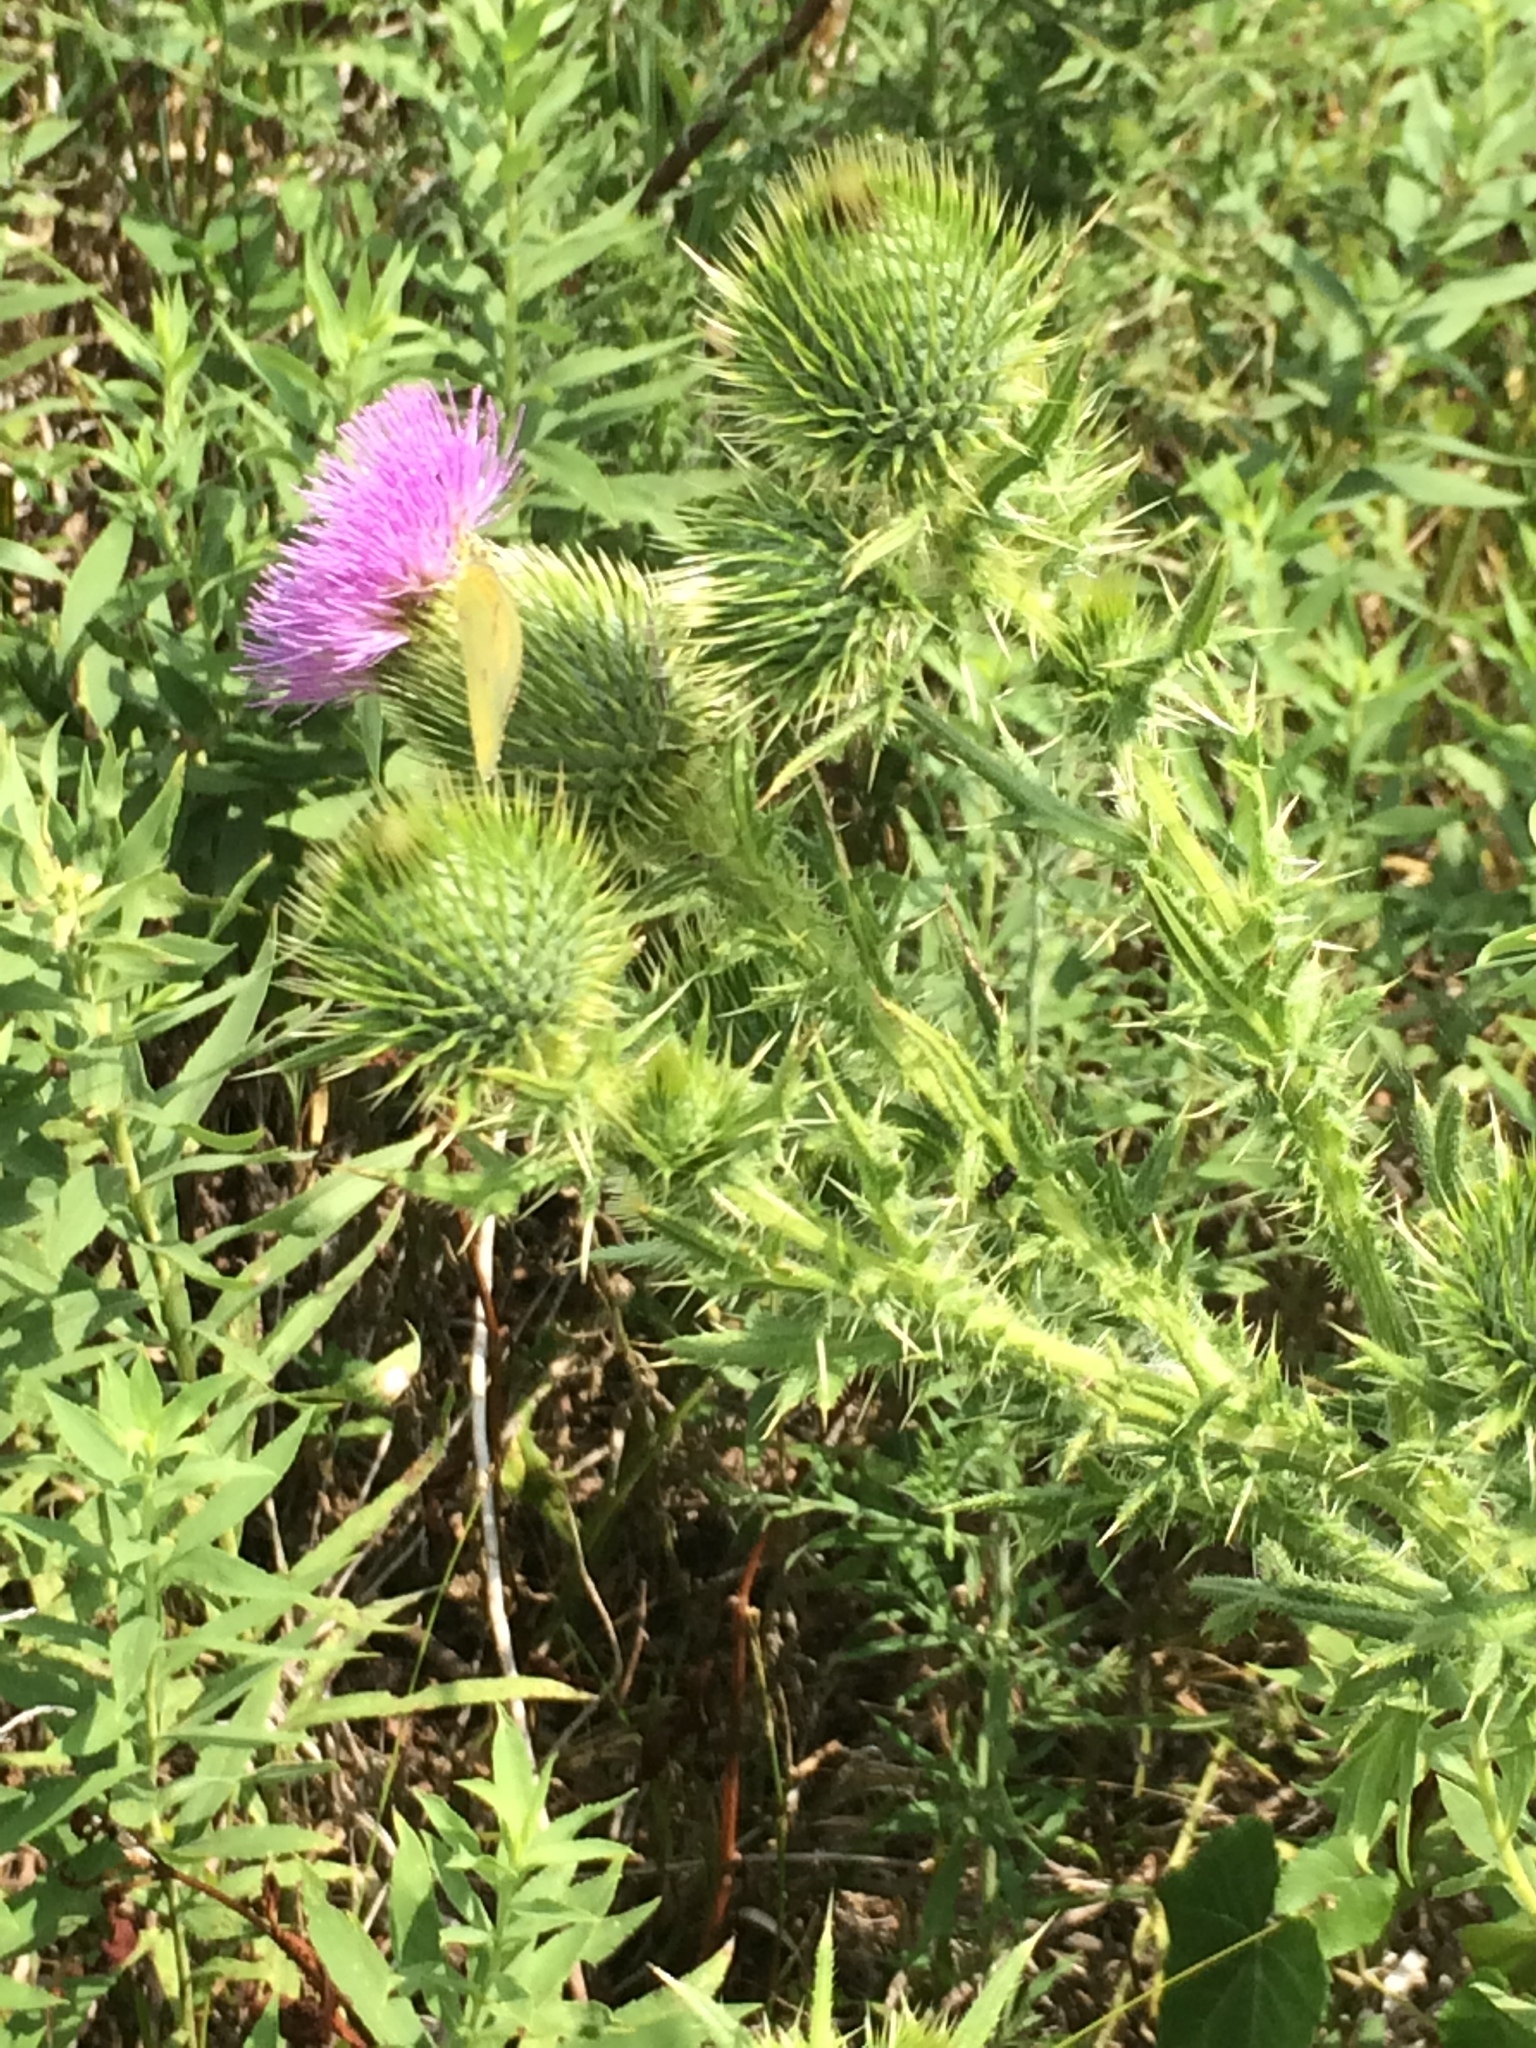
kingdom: Plantae
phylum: Tracheophyta
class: Magnoliopsida
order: Asterales
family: Asteraceae
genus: Cirsium
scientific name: Cirsium vulgare
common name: Bull thistle
